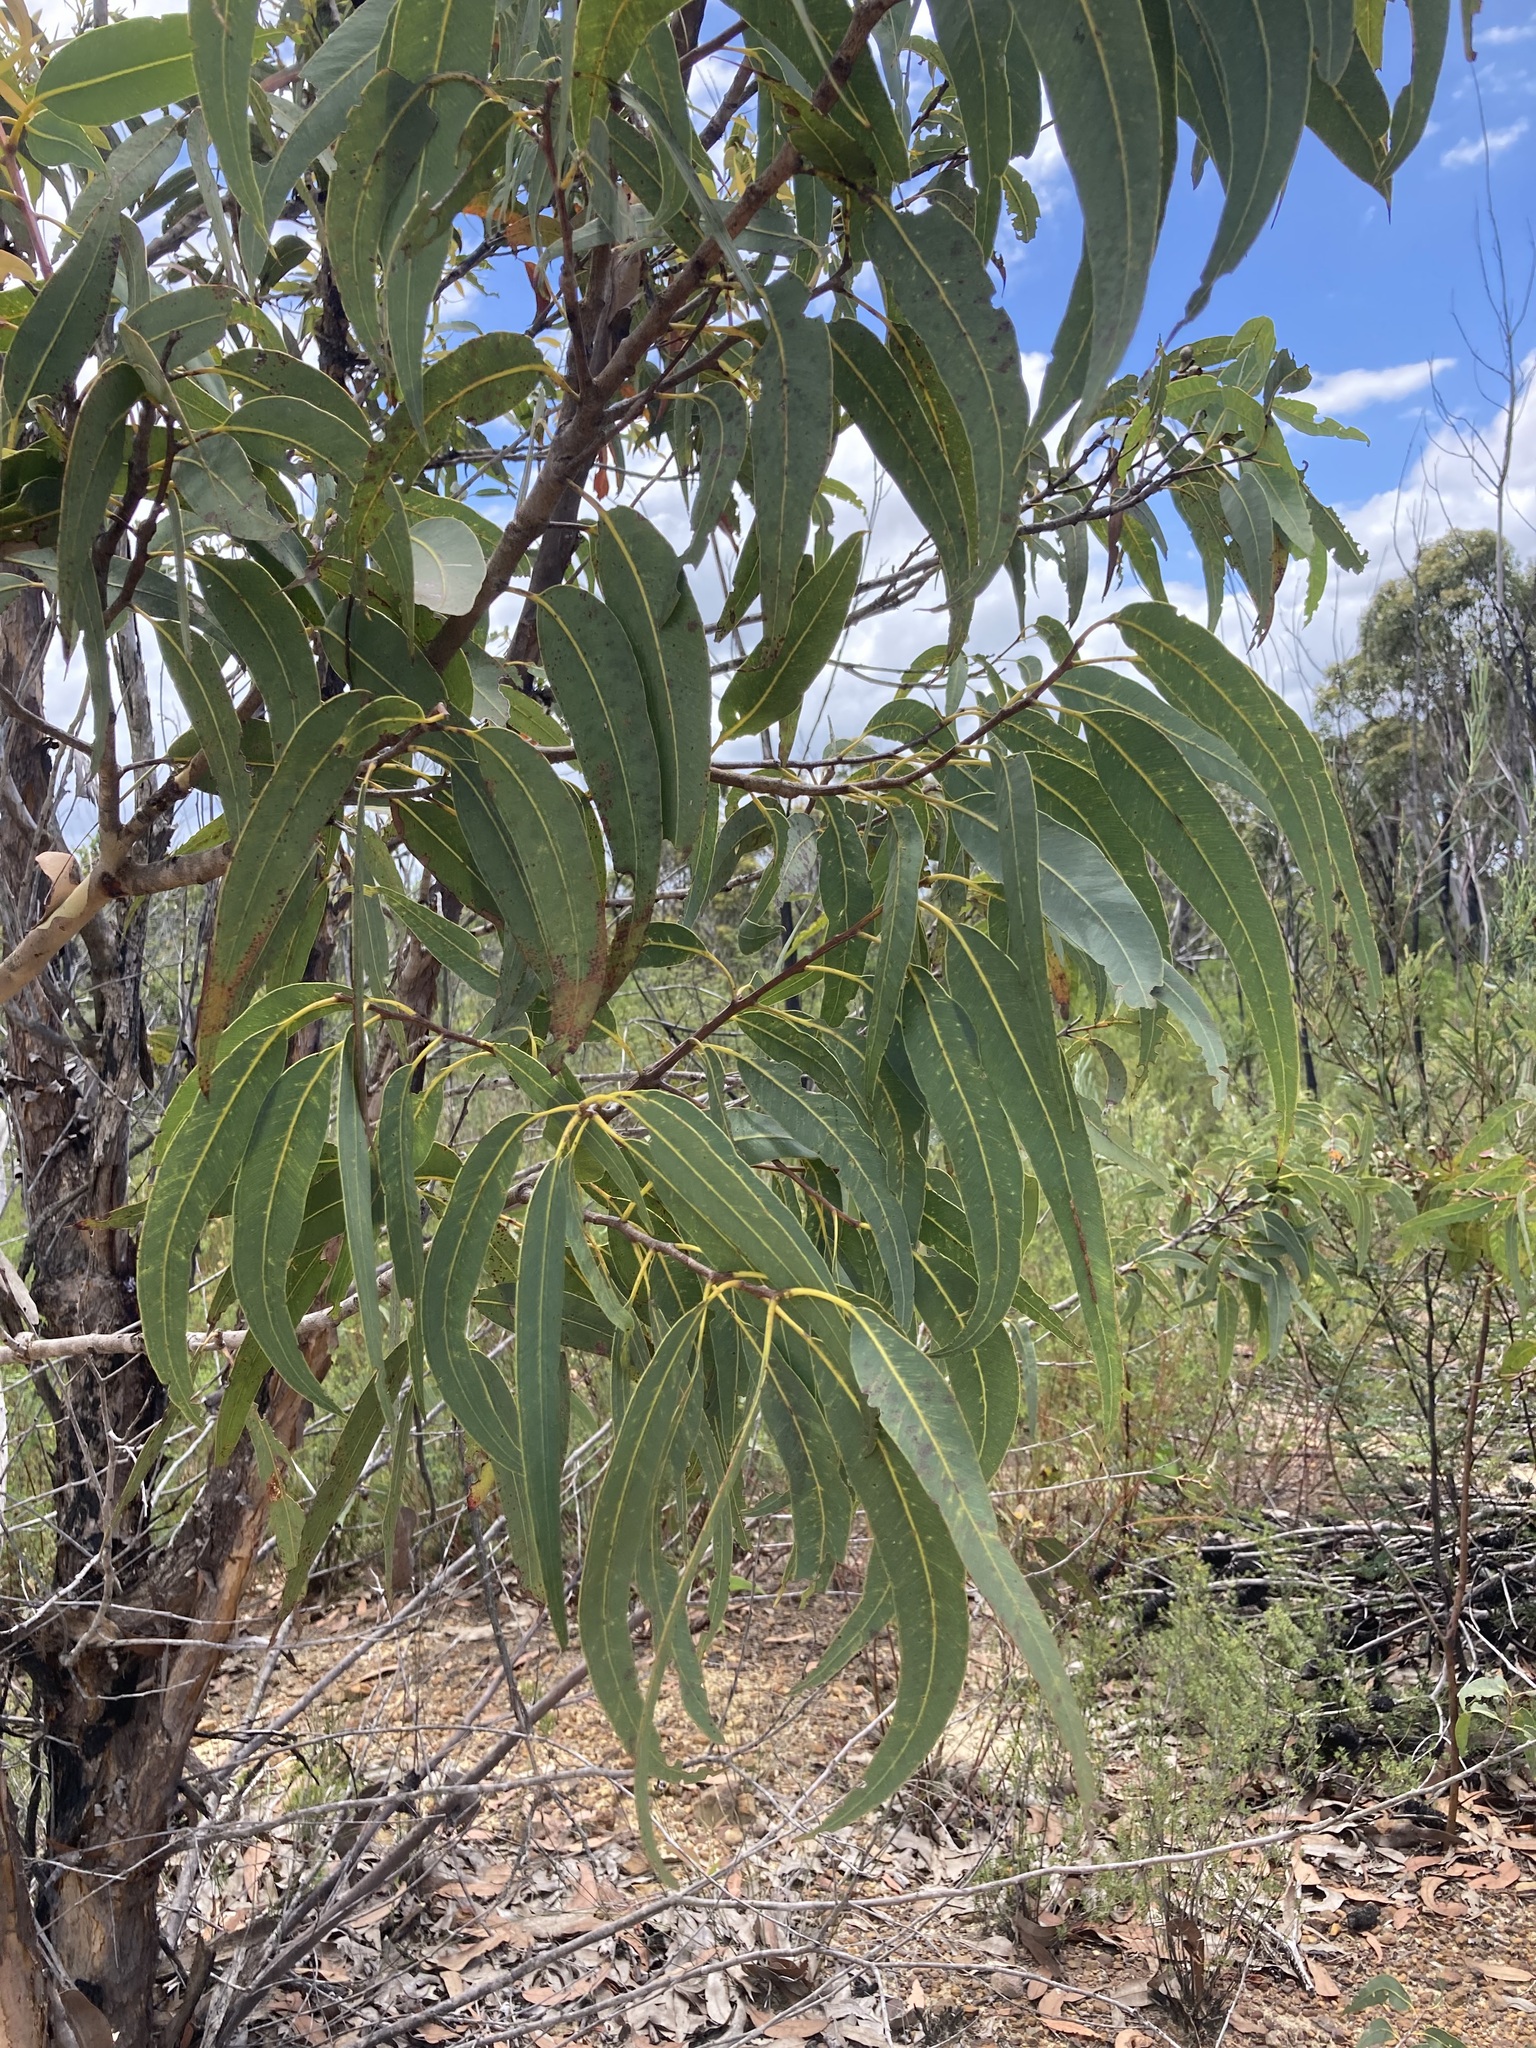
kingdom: Plantae
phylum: Tracheophyta
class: Magnoliopsida
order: Myrtales
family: Myrtaceae
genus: Corymbia
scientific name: Corymbia eximia
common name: Yellow bloodwood
